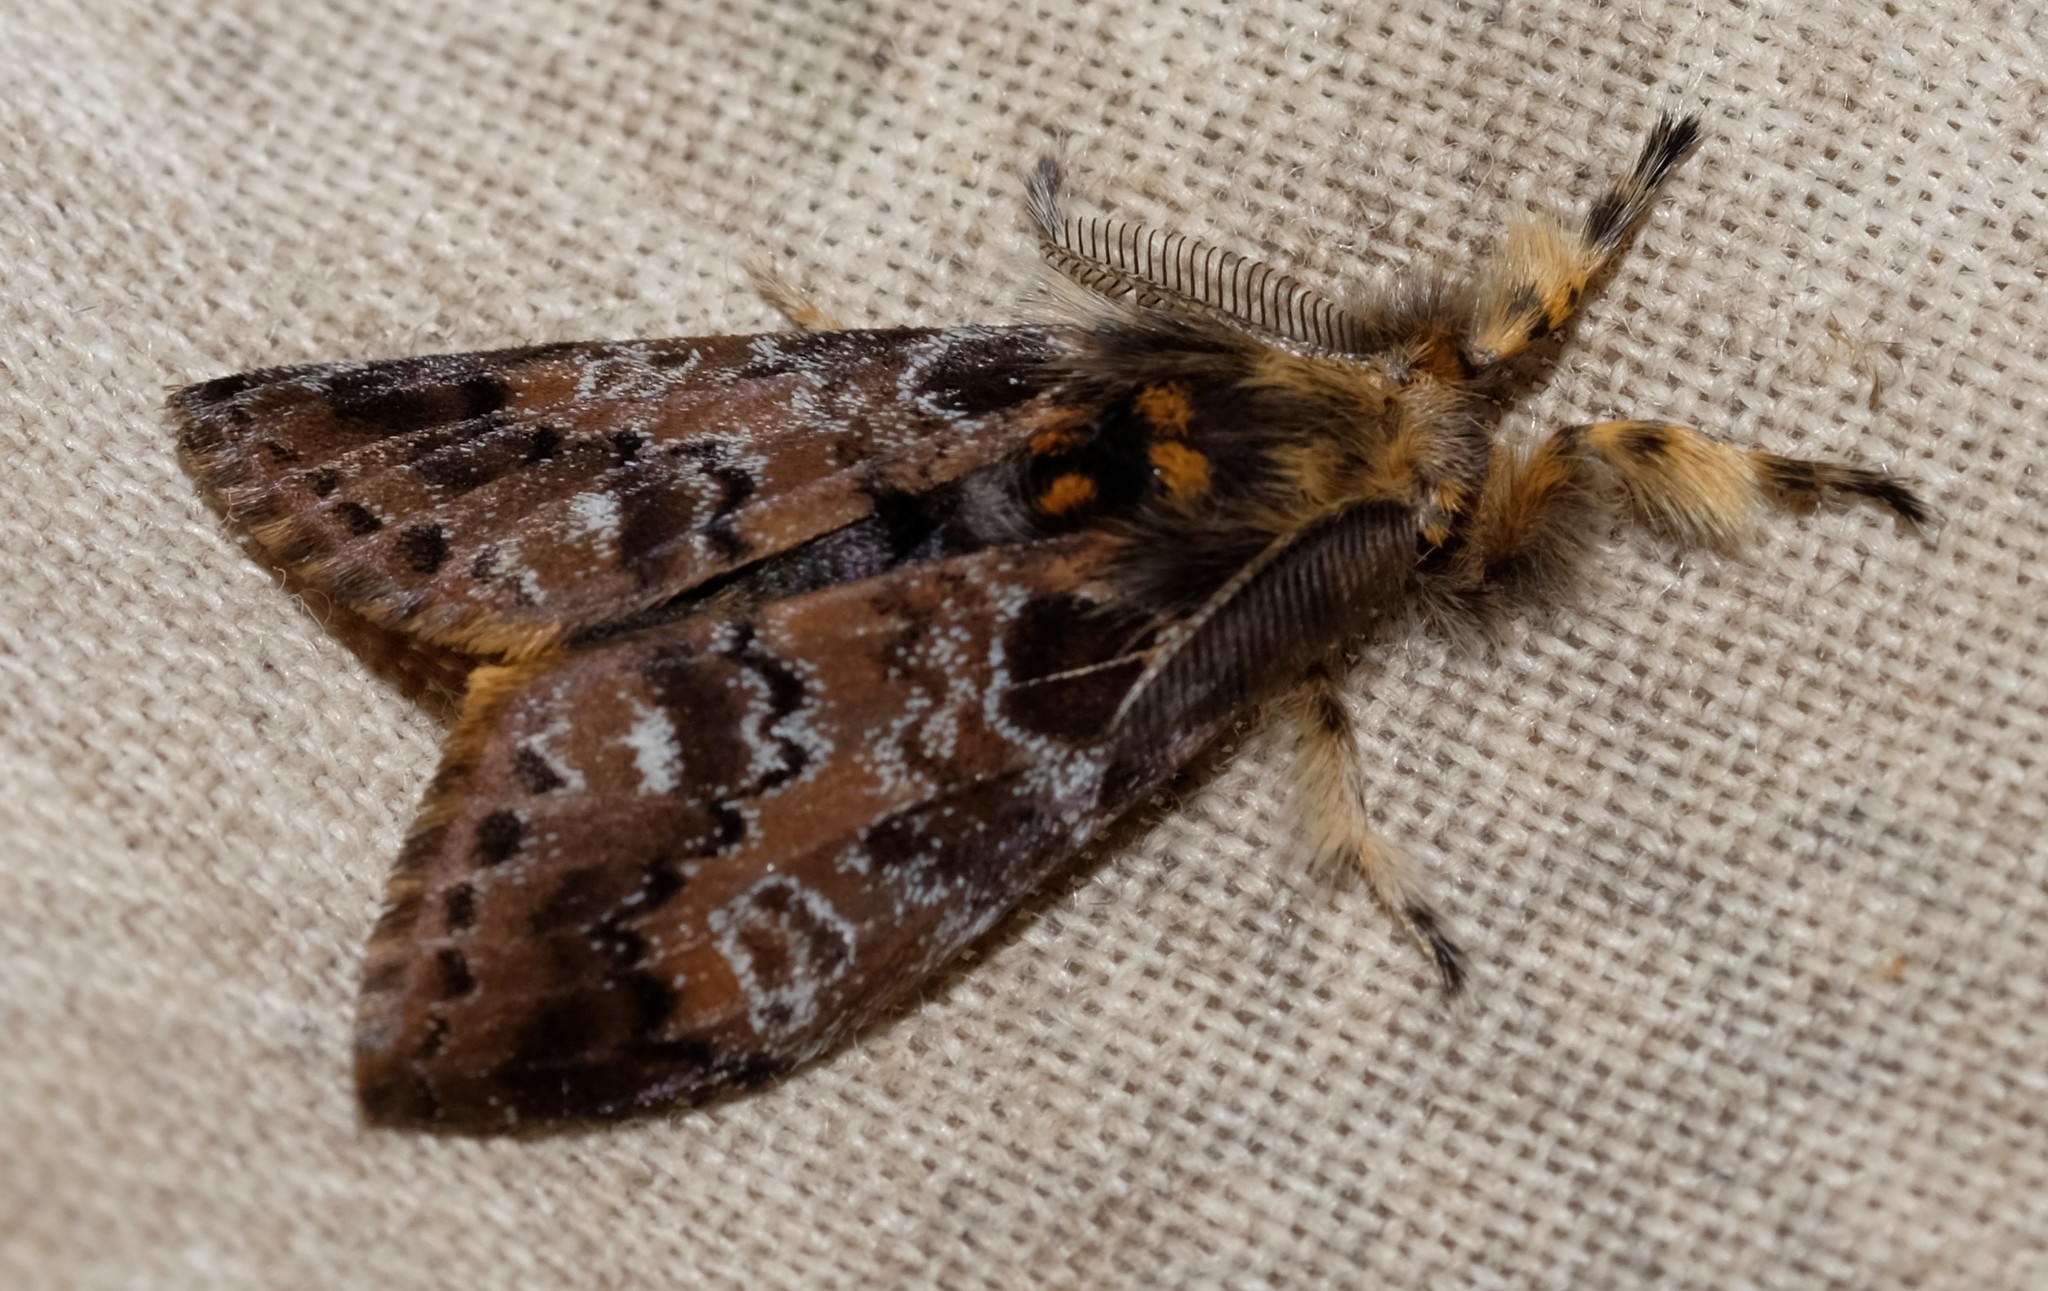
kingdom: Animalia
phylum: Arthropoda
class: Insecta
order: Lepidoptera
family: Erebidae
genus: Orgyia
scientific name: Orgyia
